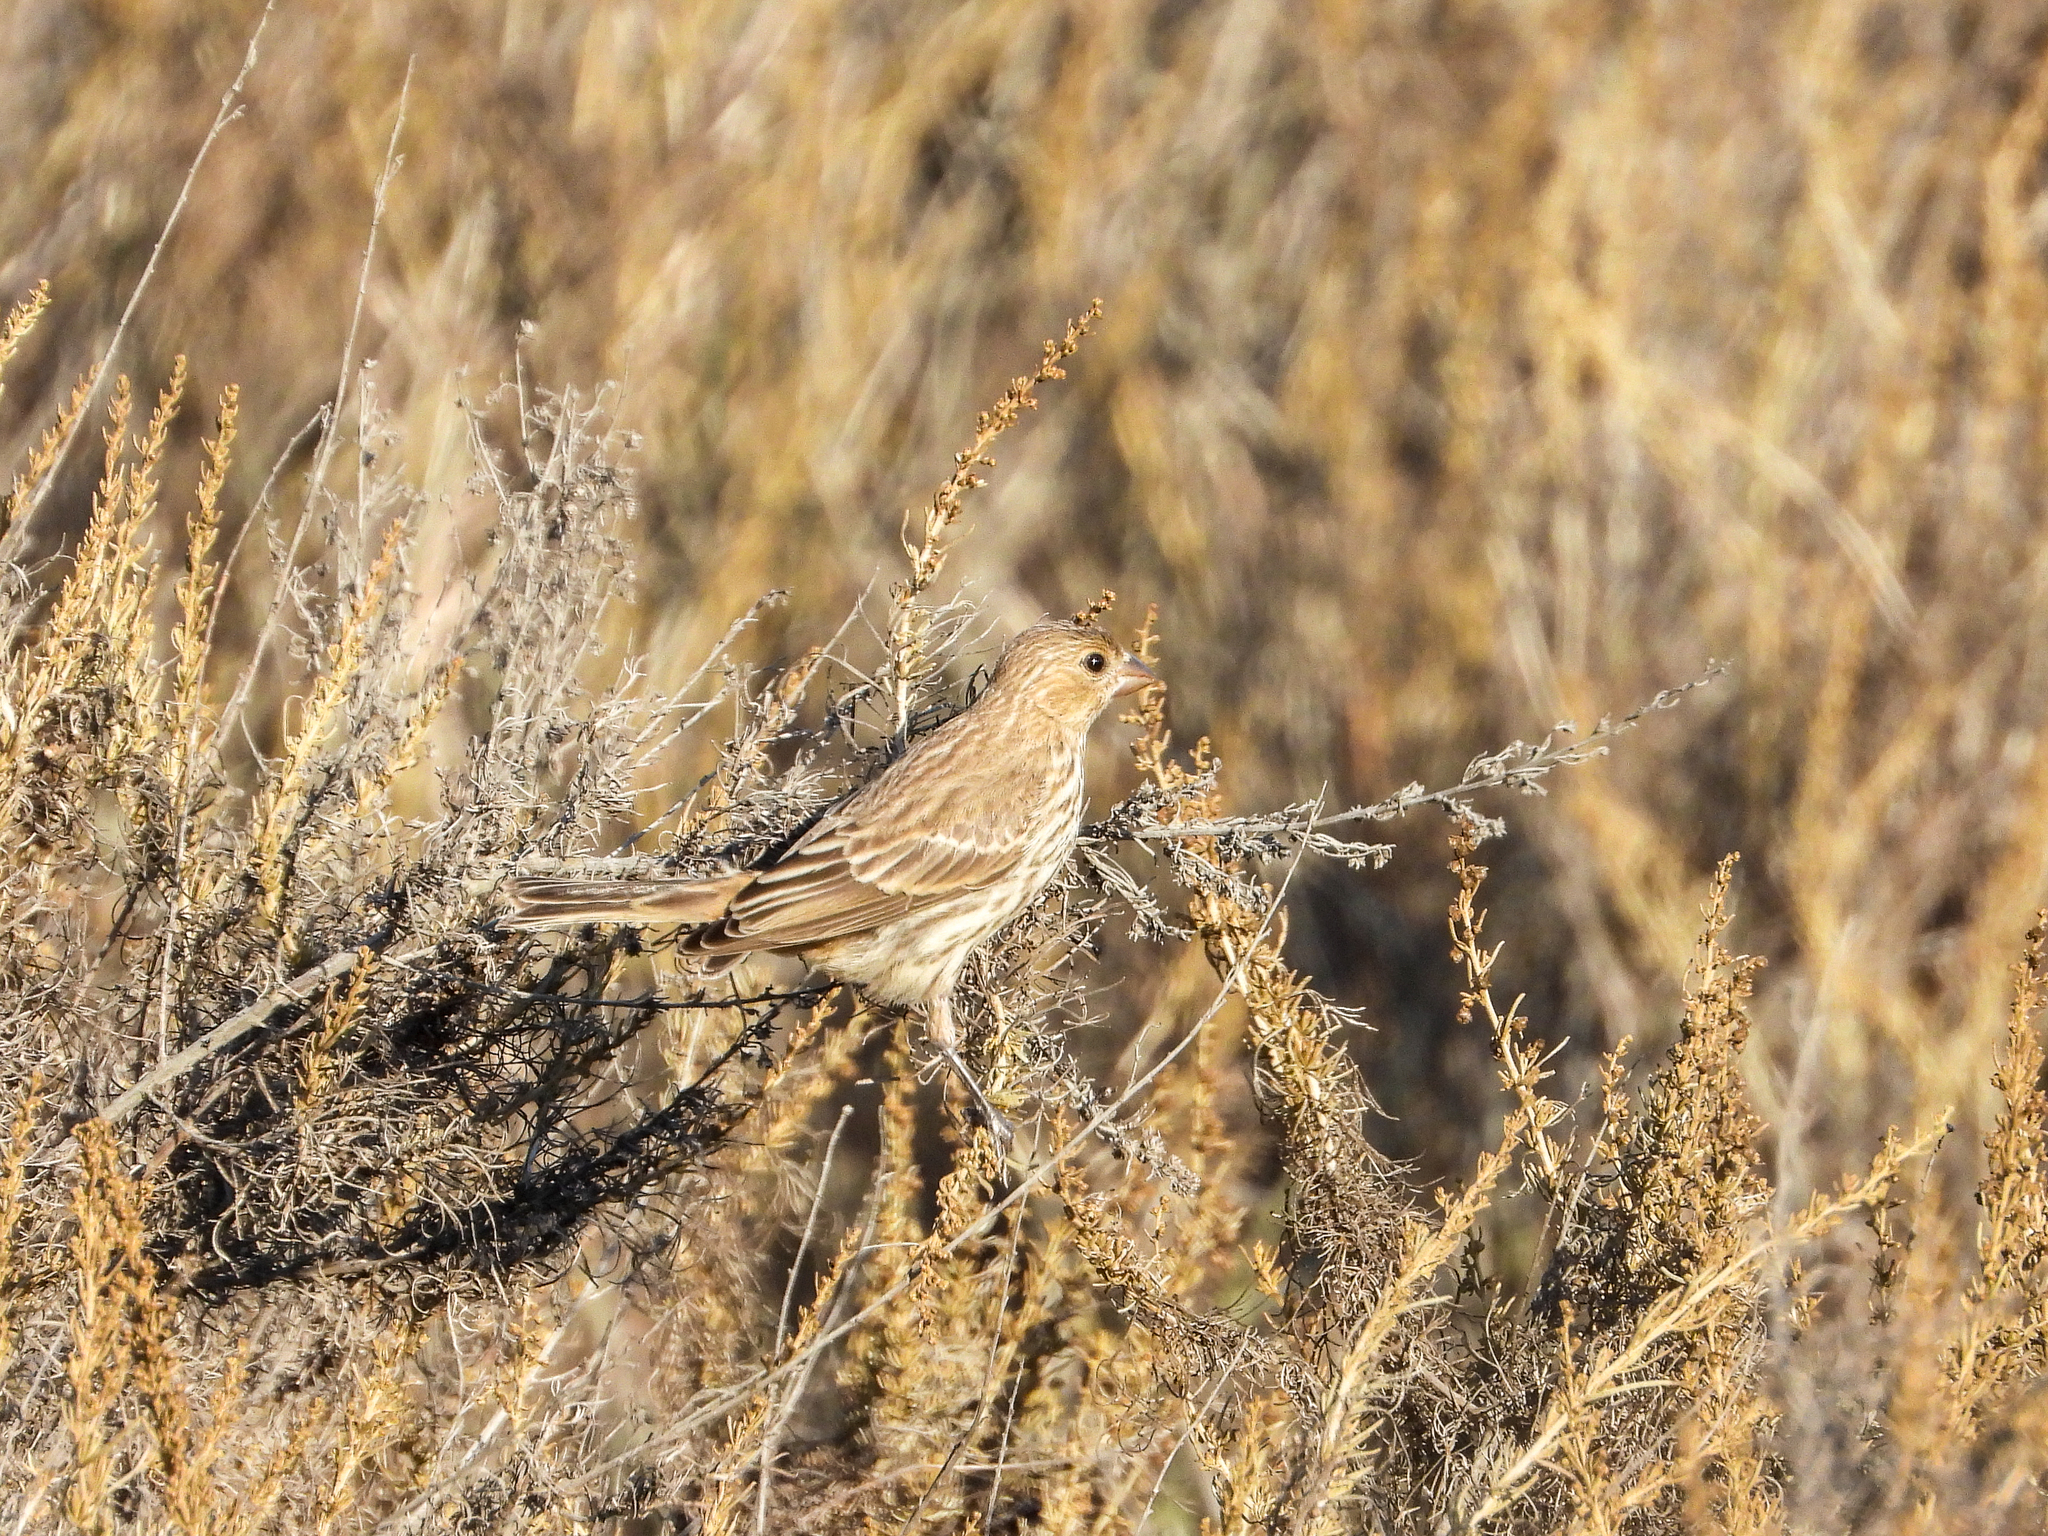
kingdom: Animalia
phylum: Chordata
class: Aves
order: Passeriformes
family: Fringillidae
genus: Haemorhous
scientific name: Haemorhous mexicanus
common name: House finch
